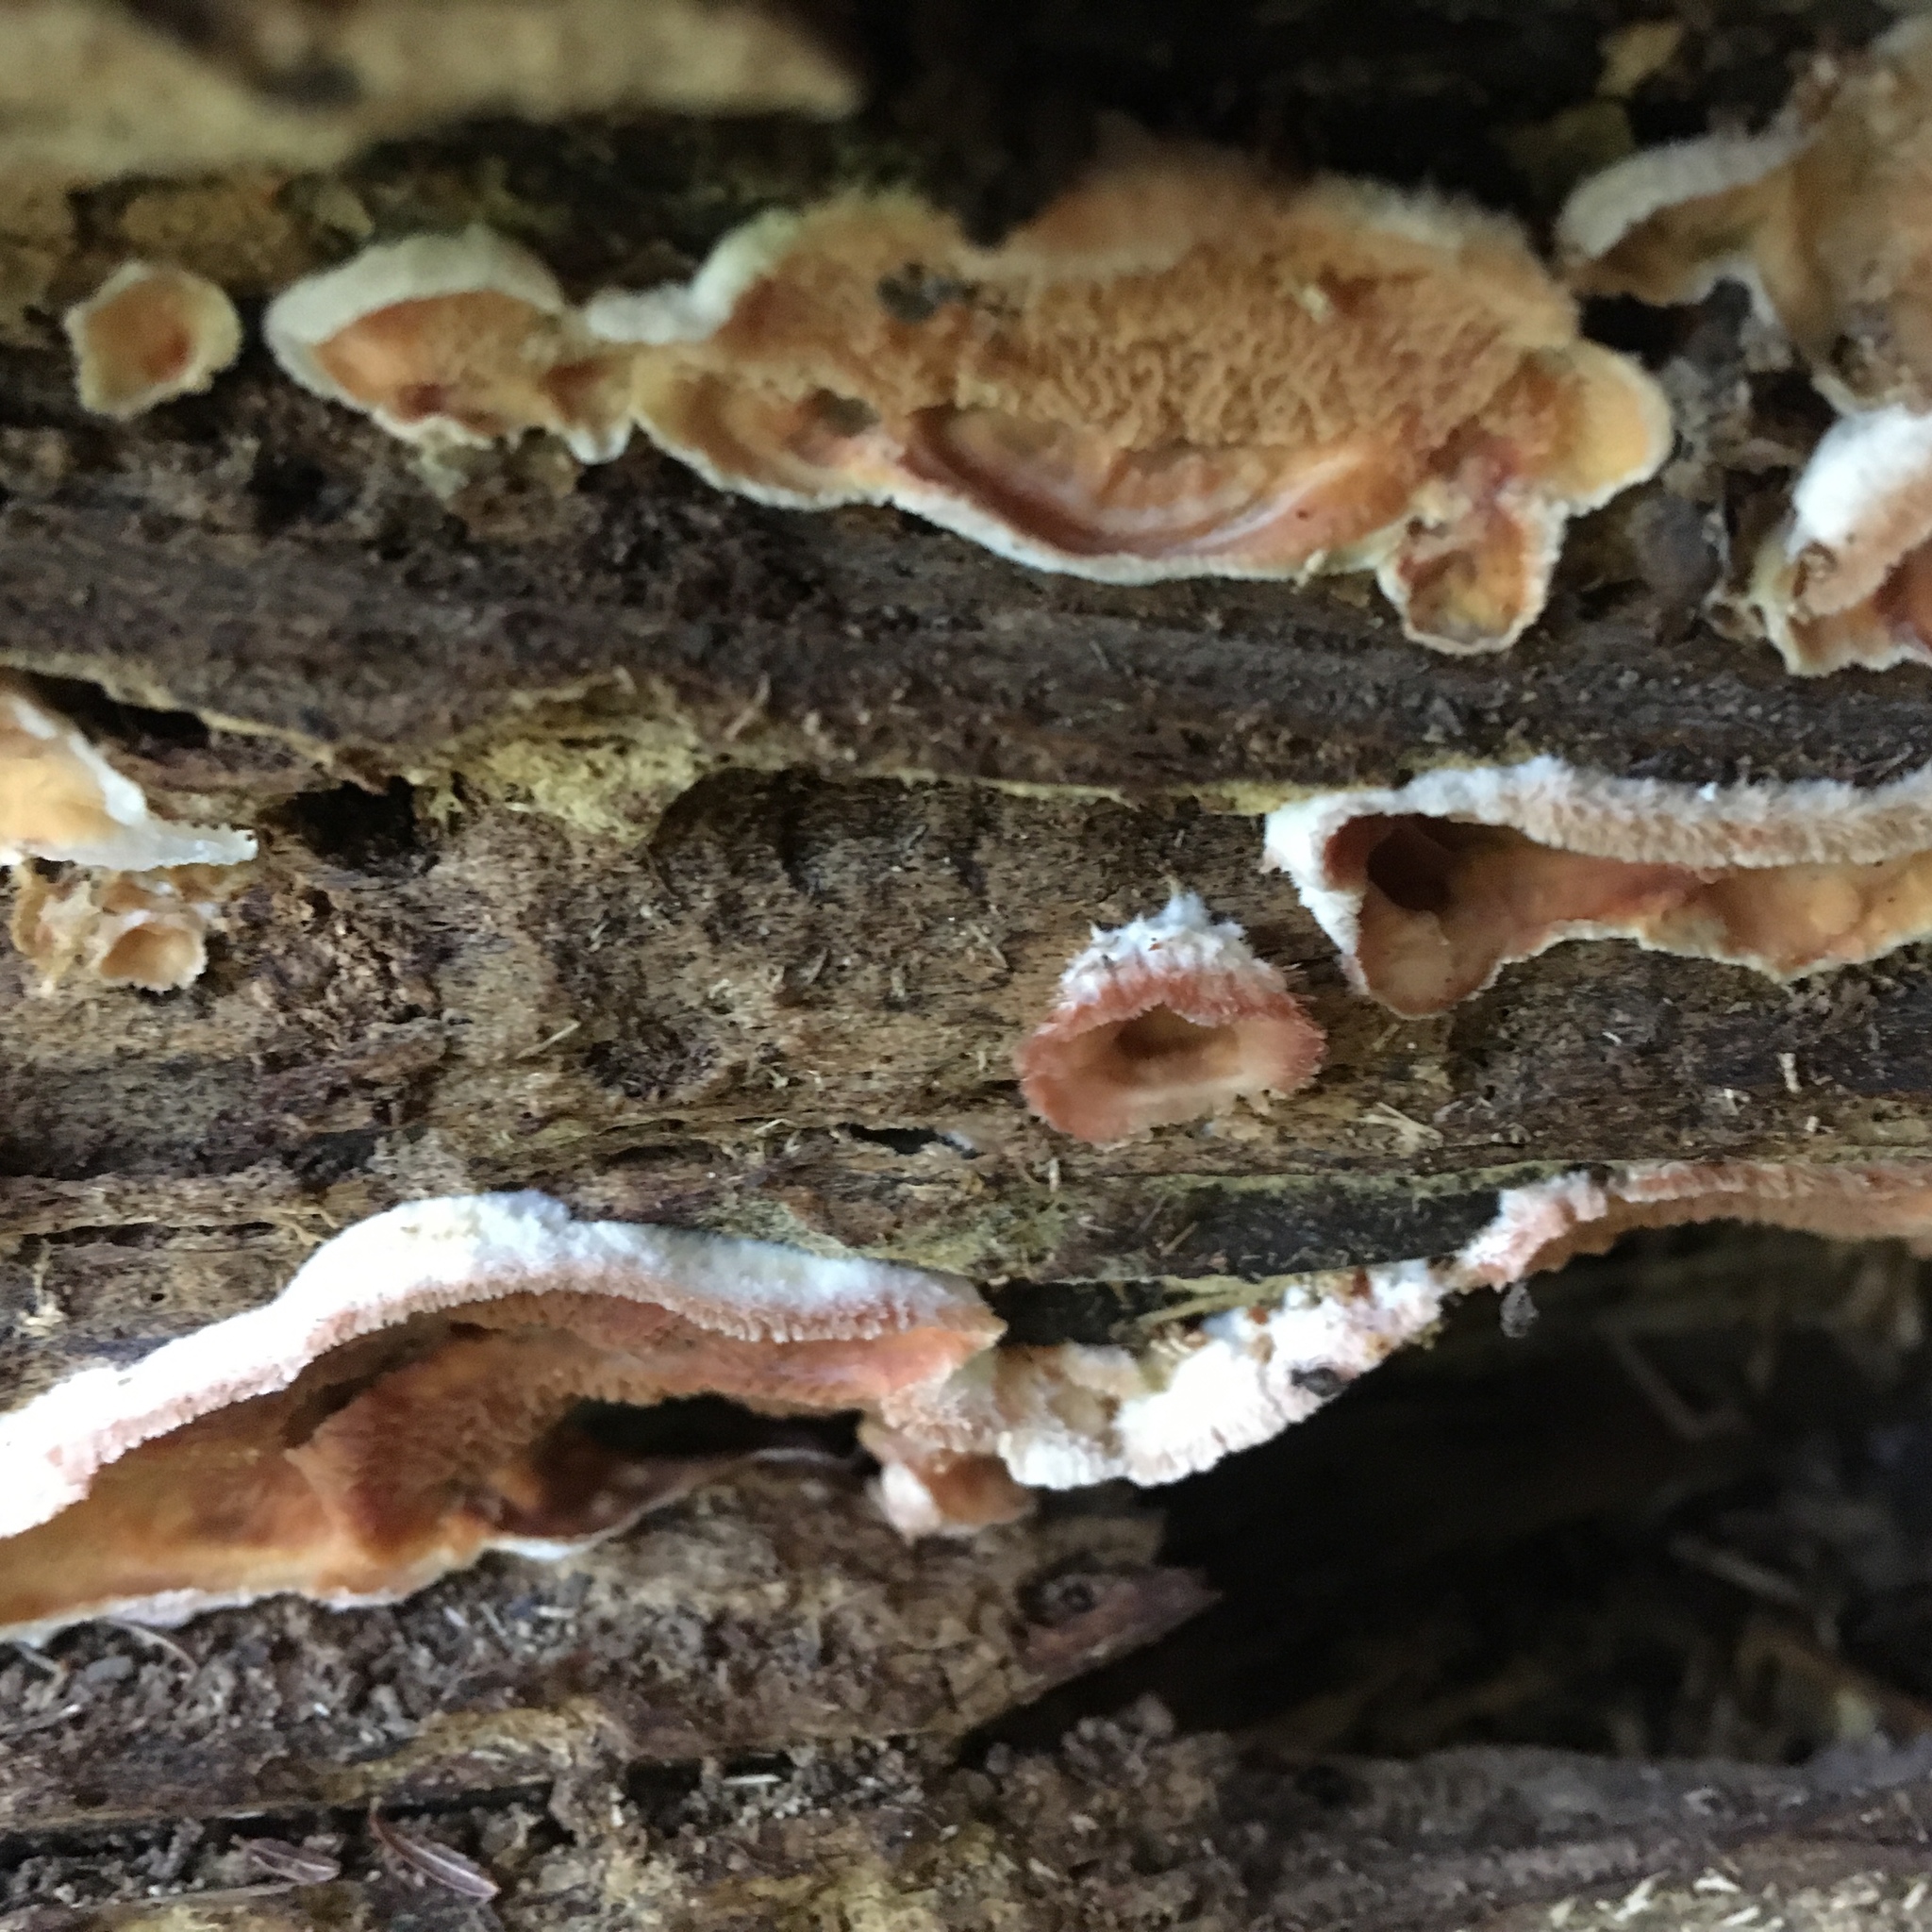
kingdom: Fungi
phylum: Basidiomycota
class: Agaricomycetes
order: Polyporales
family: Meruliaceae
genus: Phlebia
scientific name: Phlebia tremellosa
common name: Jelly rot
